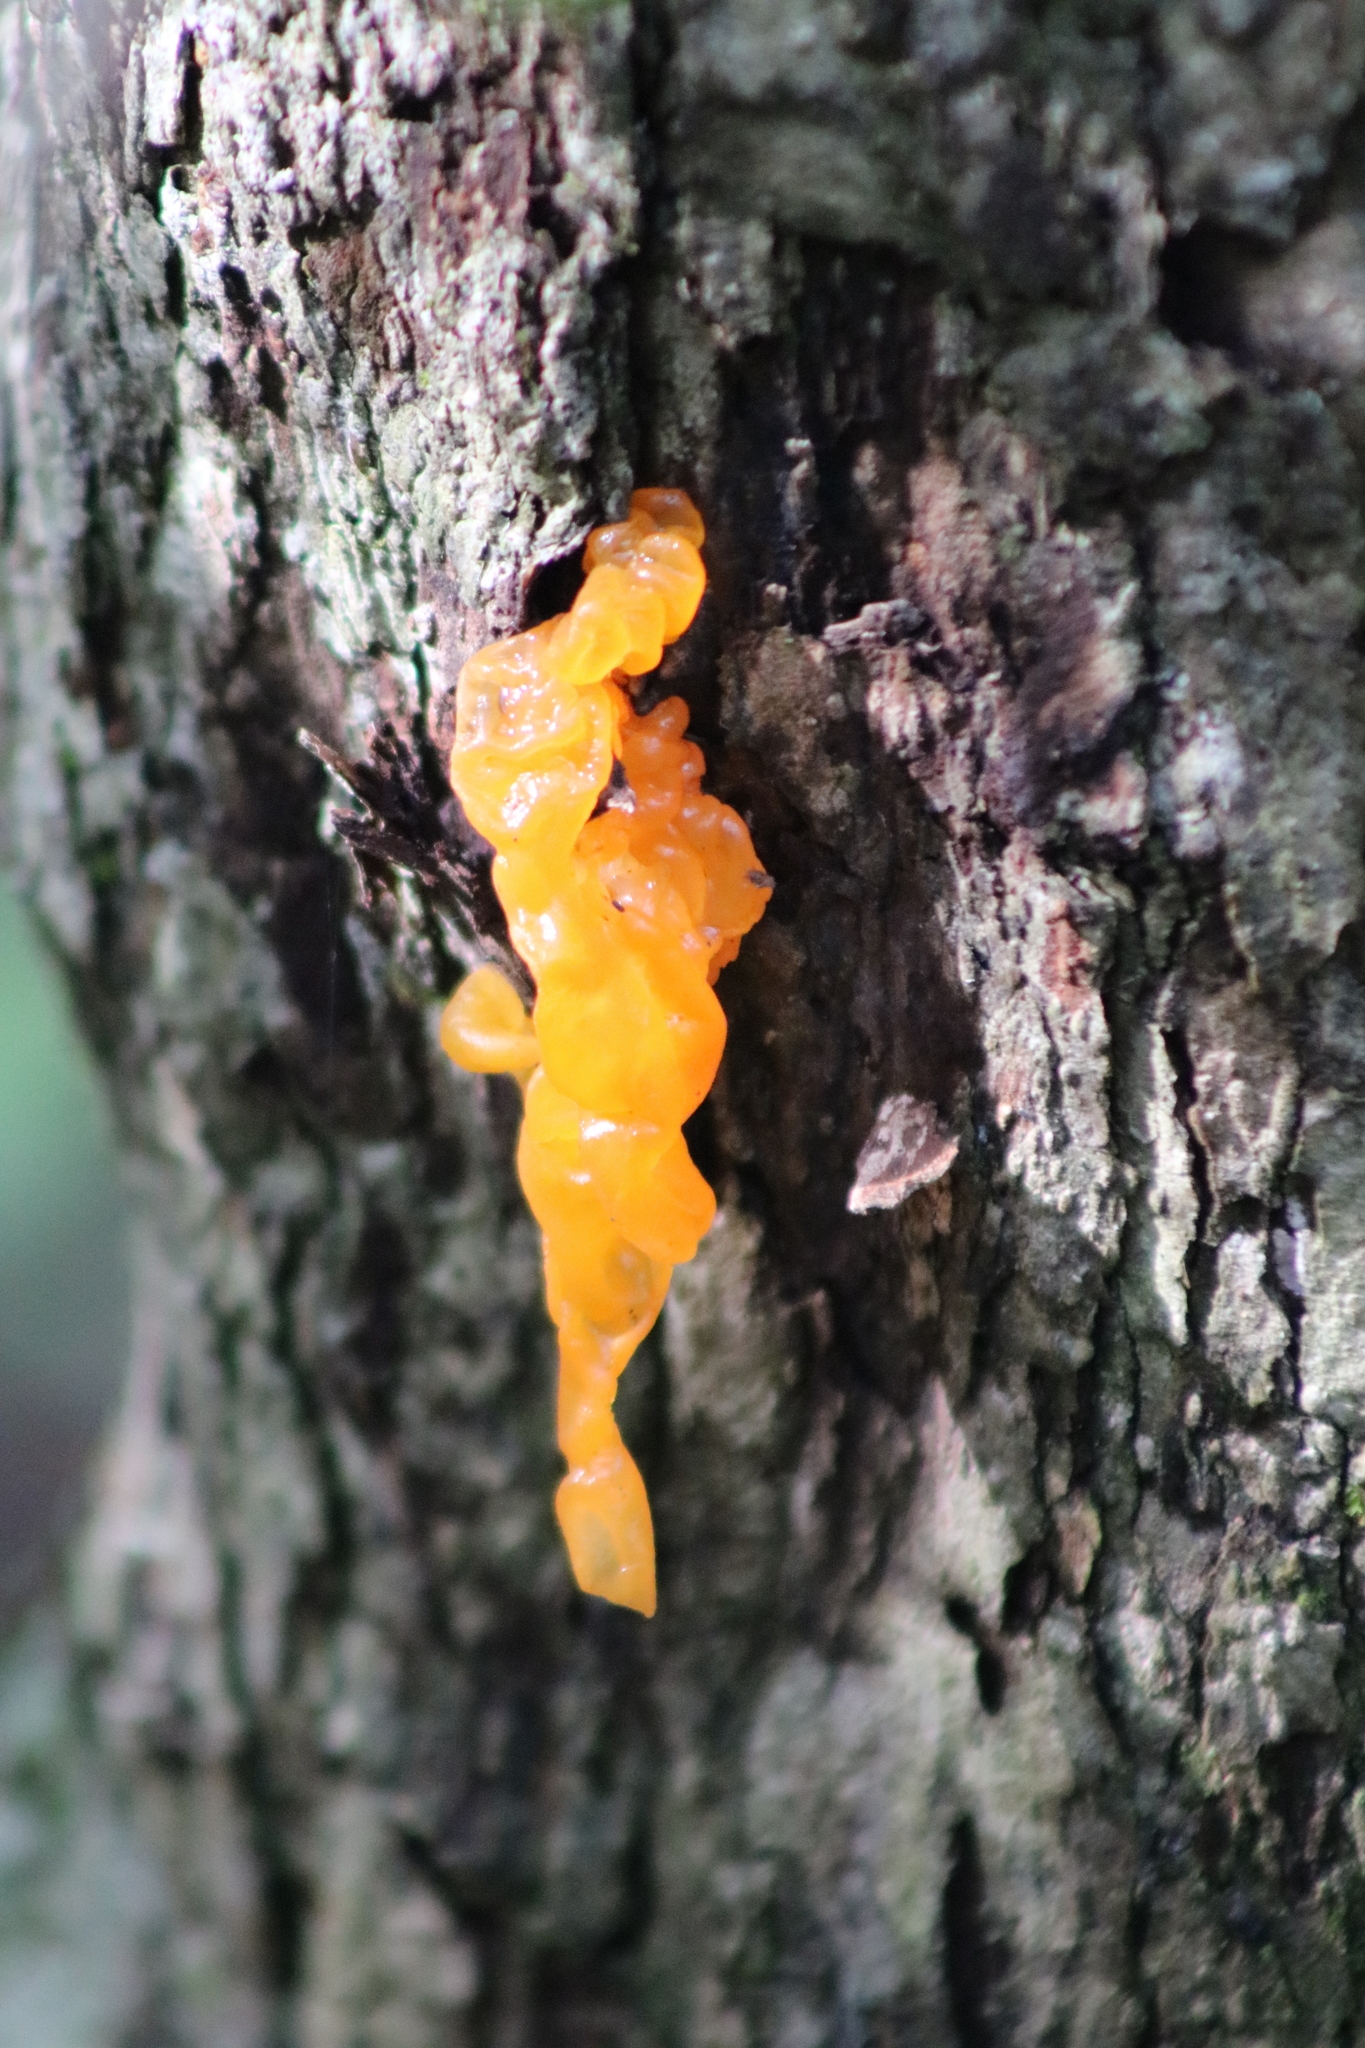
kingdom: Fungi
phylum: Basidiomycota
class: Dacrymycetes
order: Dacrymycetales
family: Dacrymycetaceae
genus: Dacrymyces
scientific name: Dacrymyces chrysospermus
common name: Orange jelly spot
